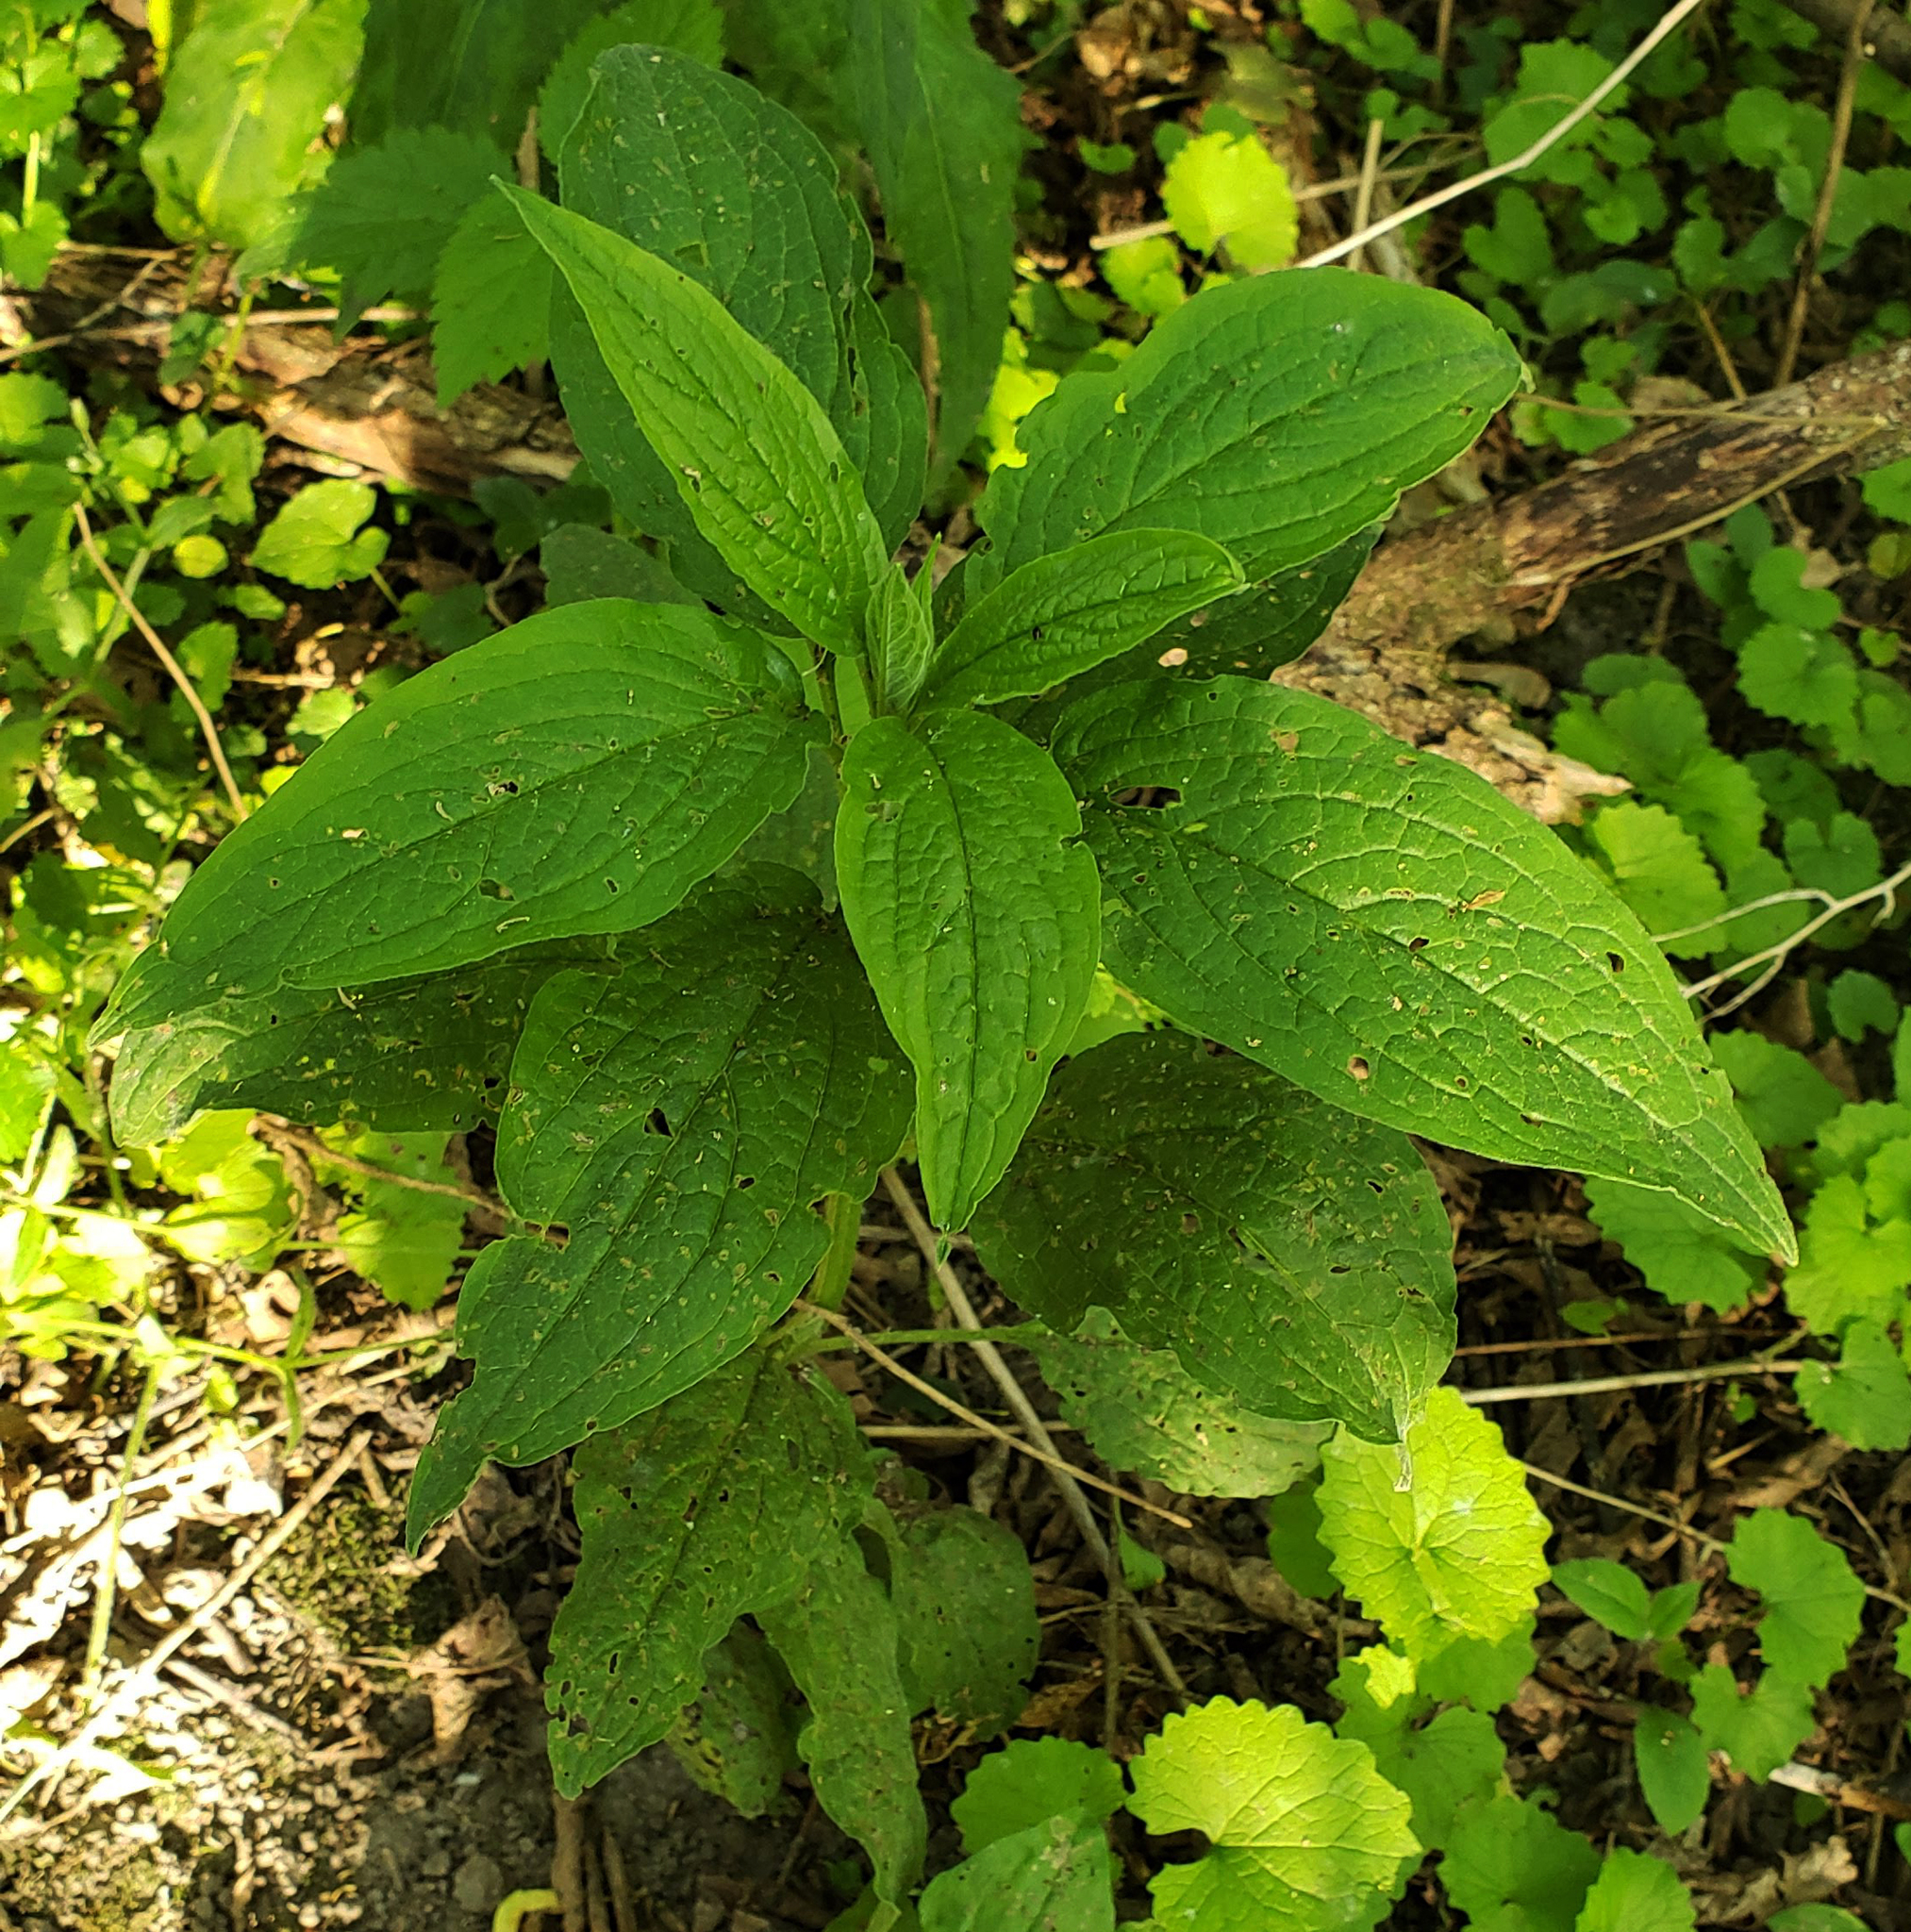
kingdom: Plantae
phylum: Tracheophyta
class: Magnoliopsida
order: Boraginales
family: Boraginaceae
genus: Hackelia
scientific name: Hackelia virginiana
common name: Beggar's-lice
